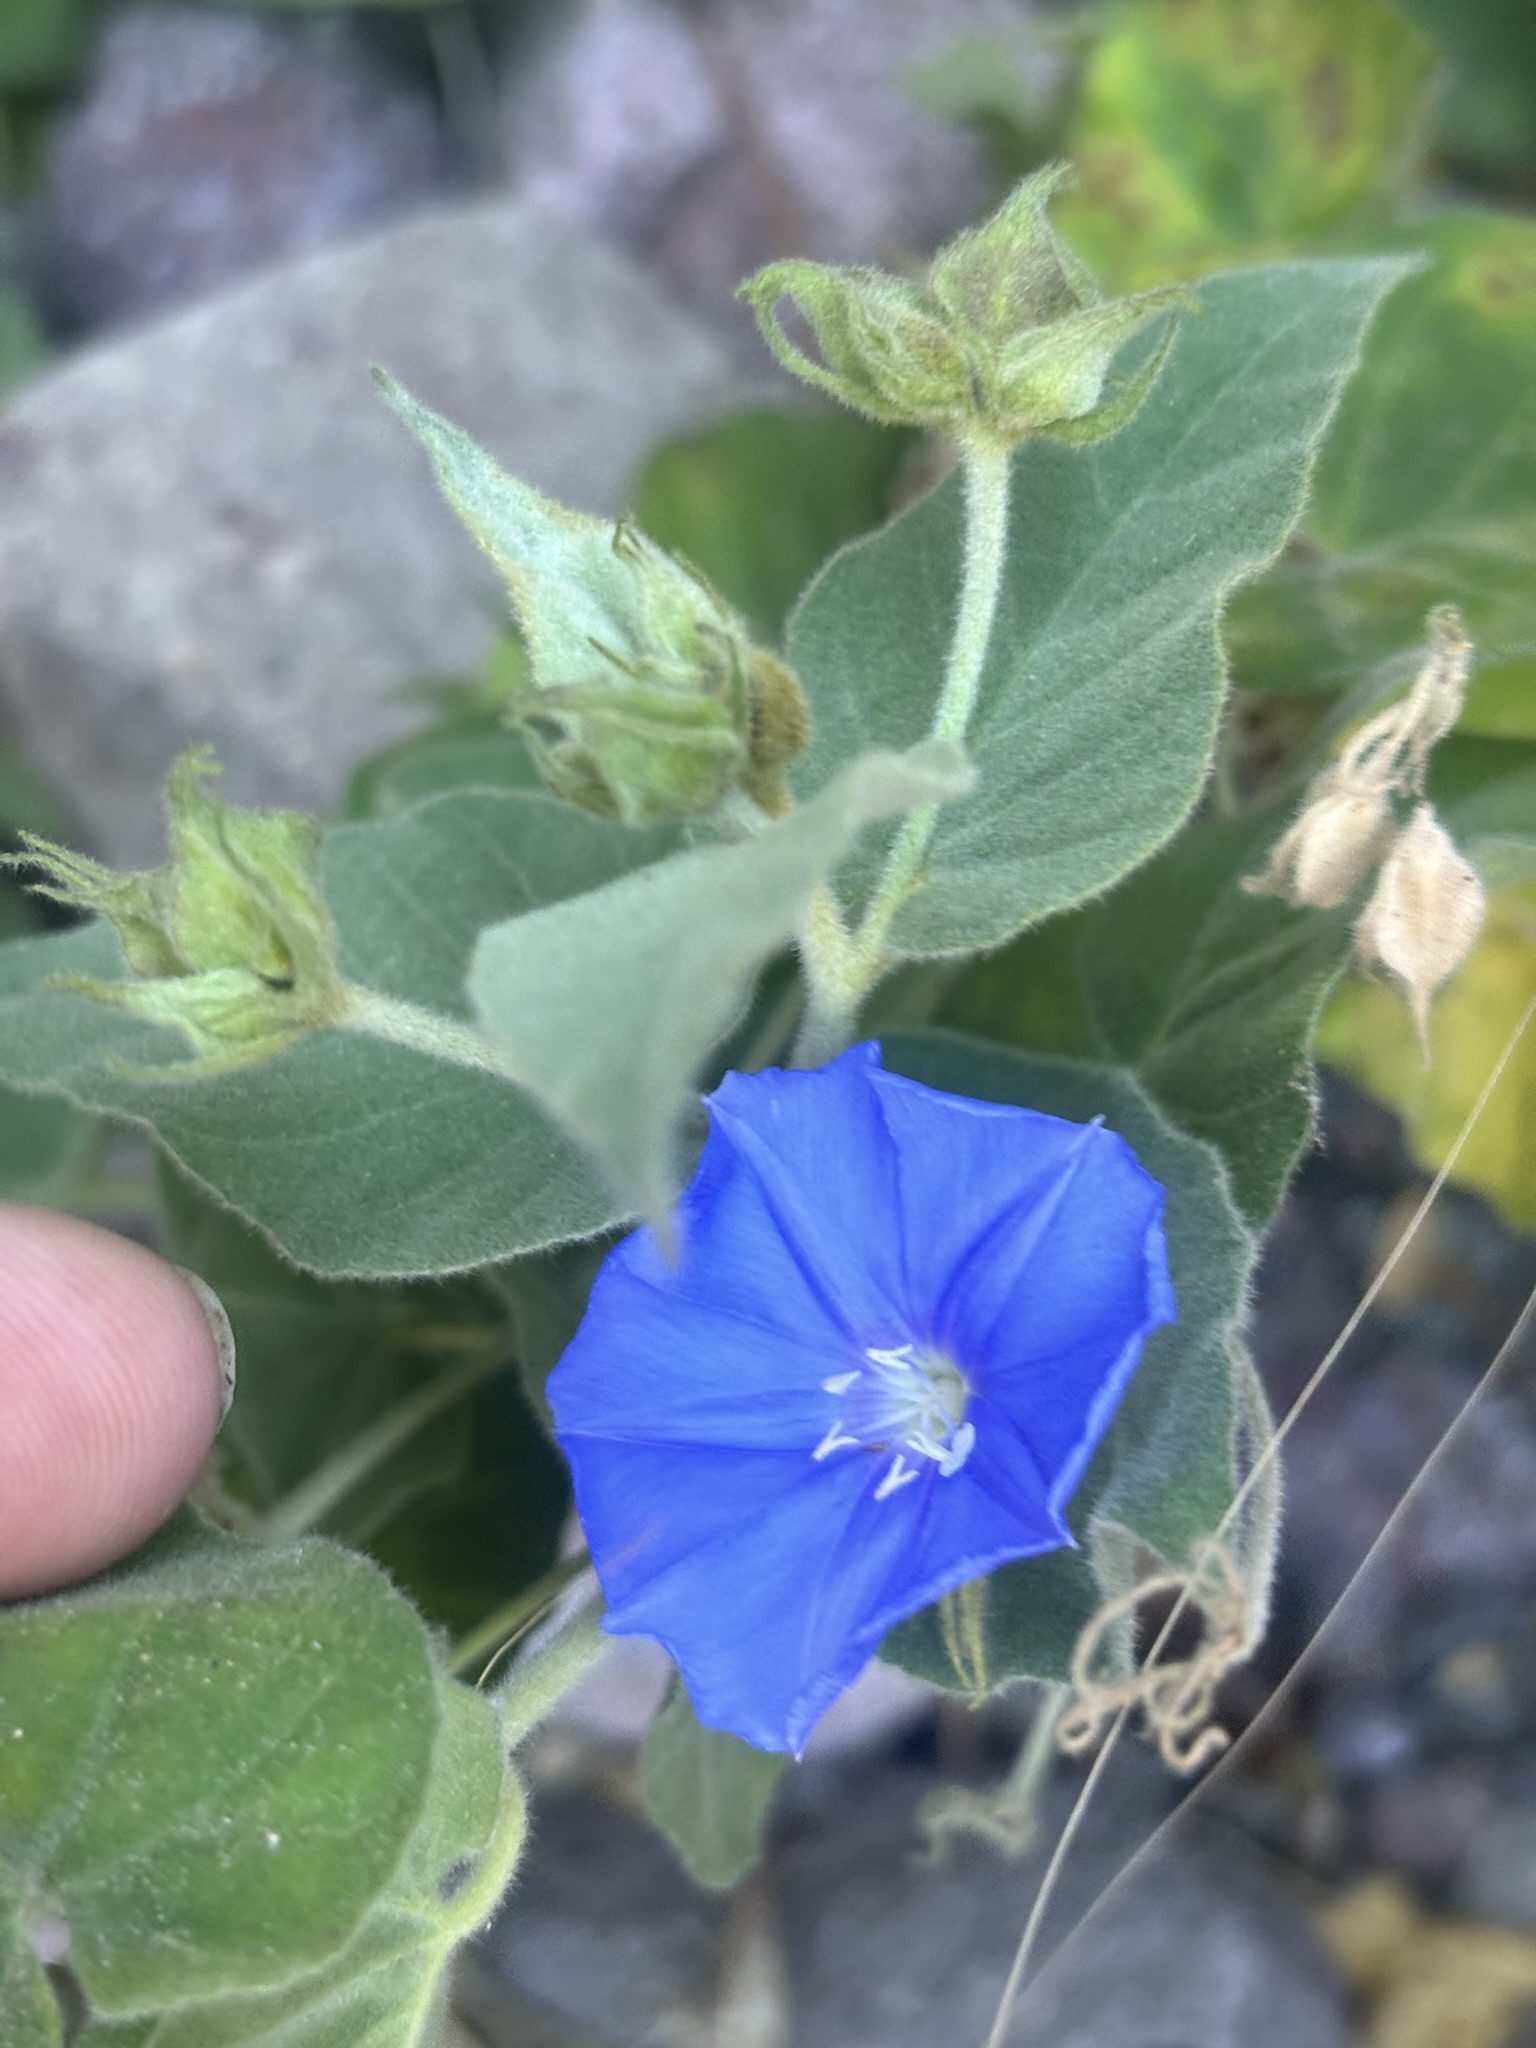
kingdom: Plantae
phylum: Tracheophyta
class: Magnoliopsida
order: Solanales
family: Convolvulaceae
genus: Jacquemontia
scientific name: Jacquemontia abutiloides
